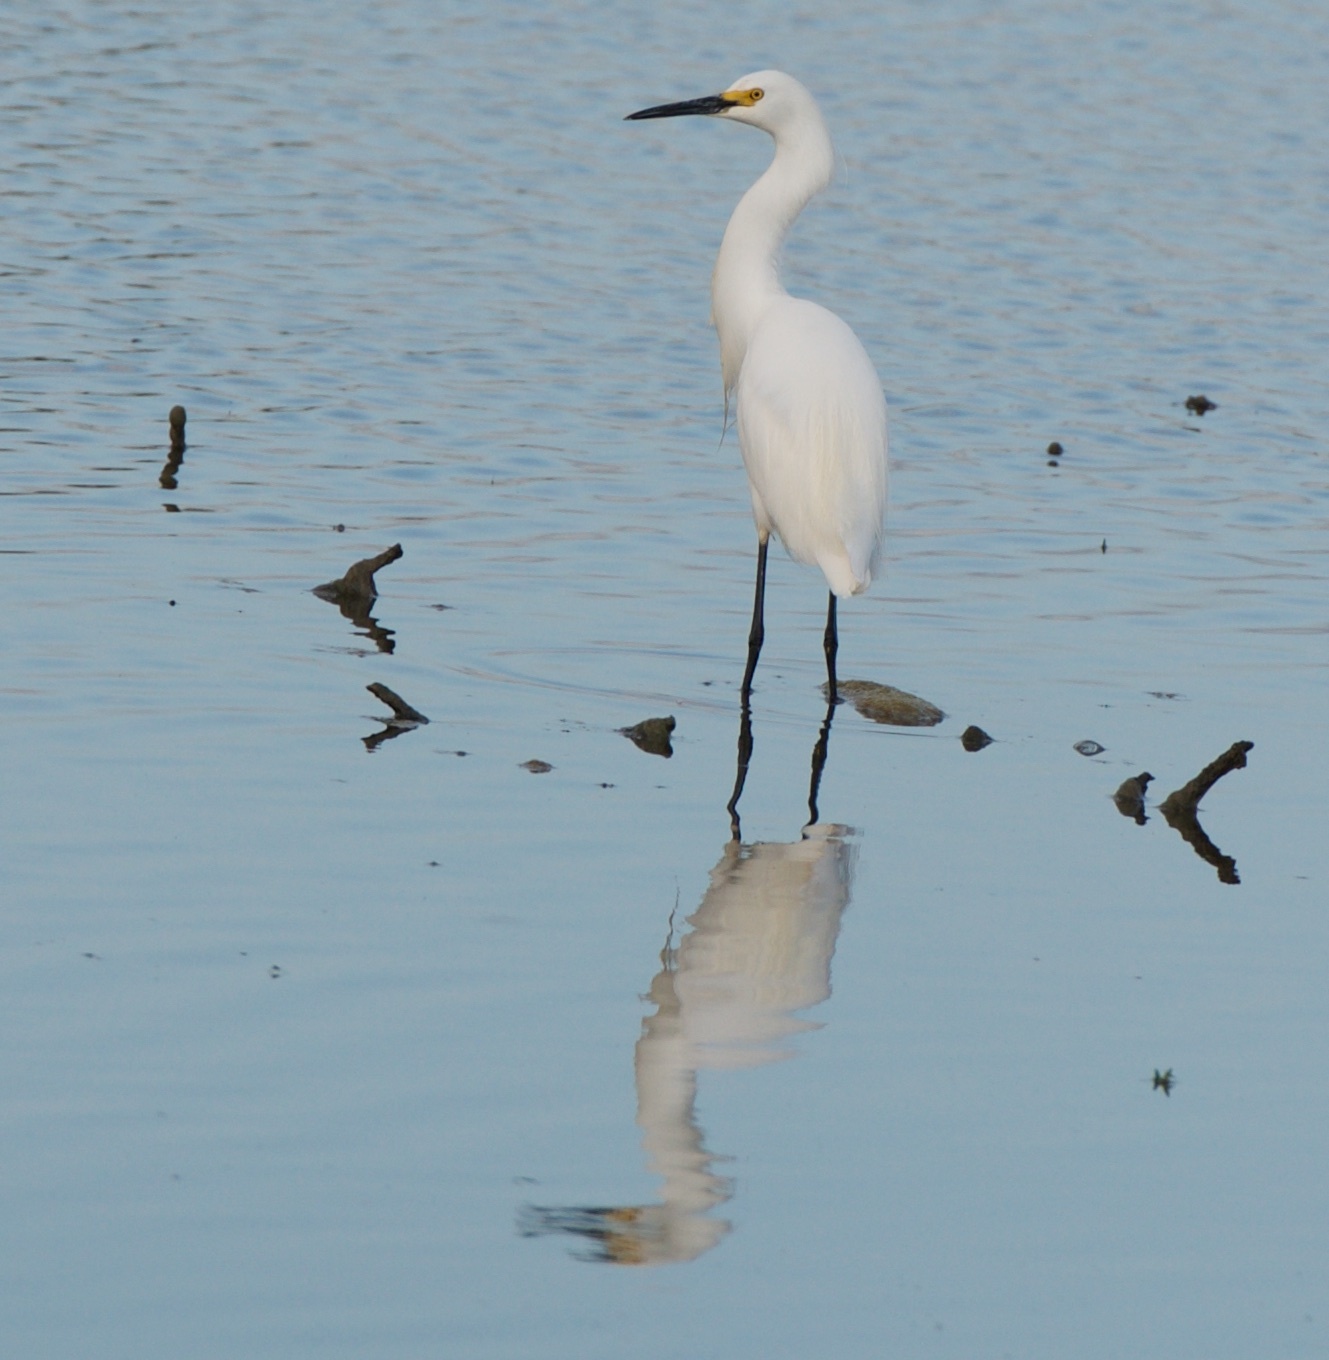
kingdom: Animalia
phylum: Chordata
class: Aves
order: Pelecaniformes
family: Ardeidae
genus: Egretta
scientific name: Egretta thula
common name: Snowy egret
